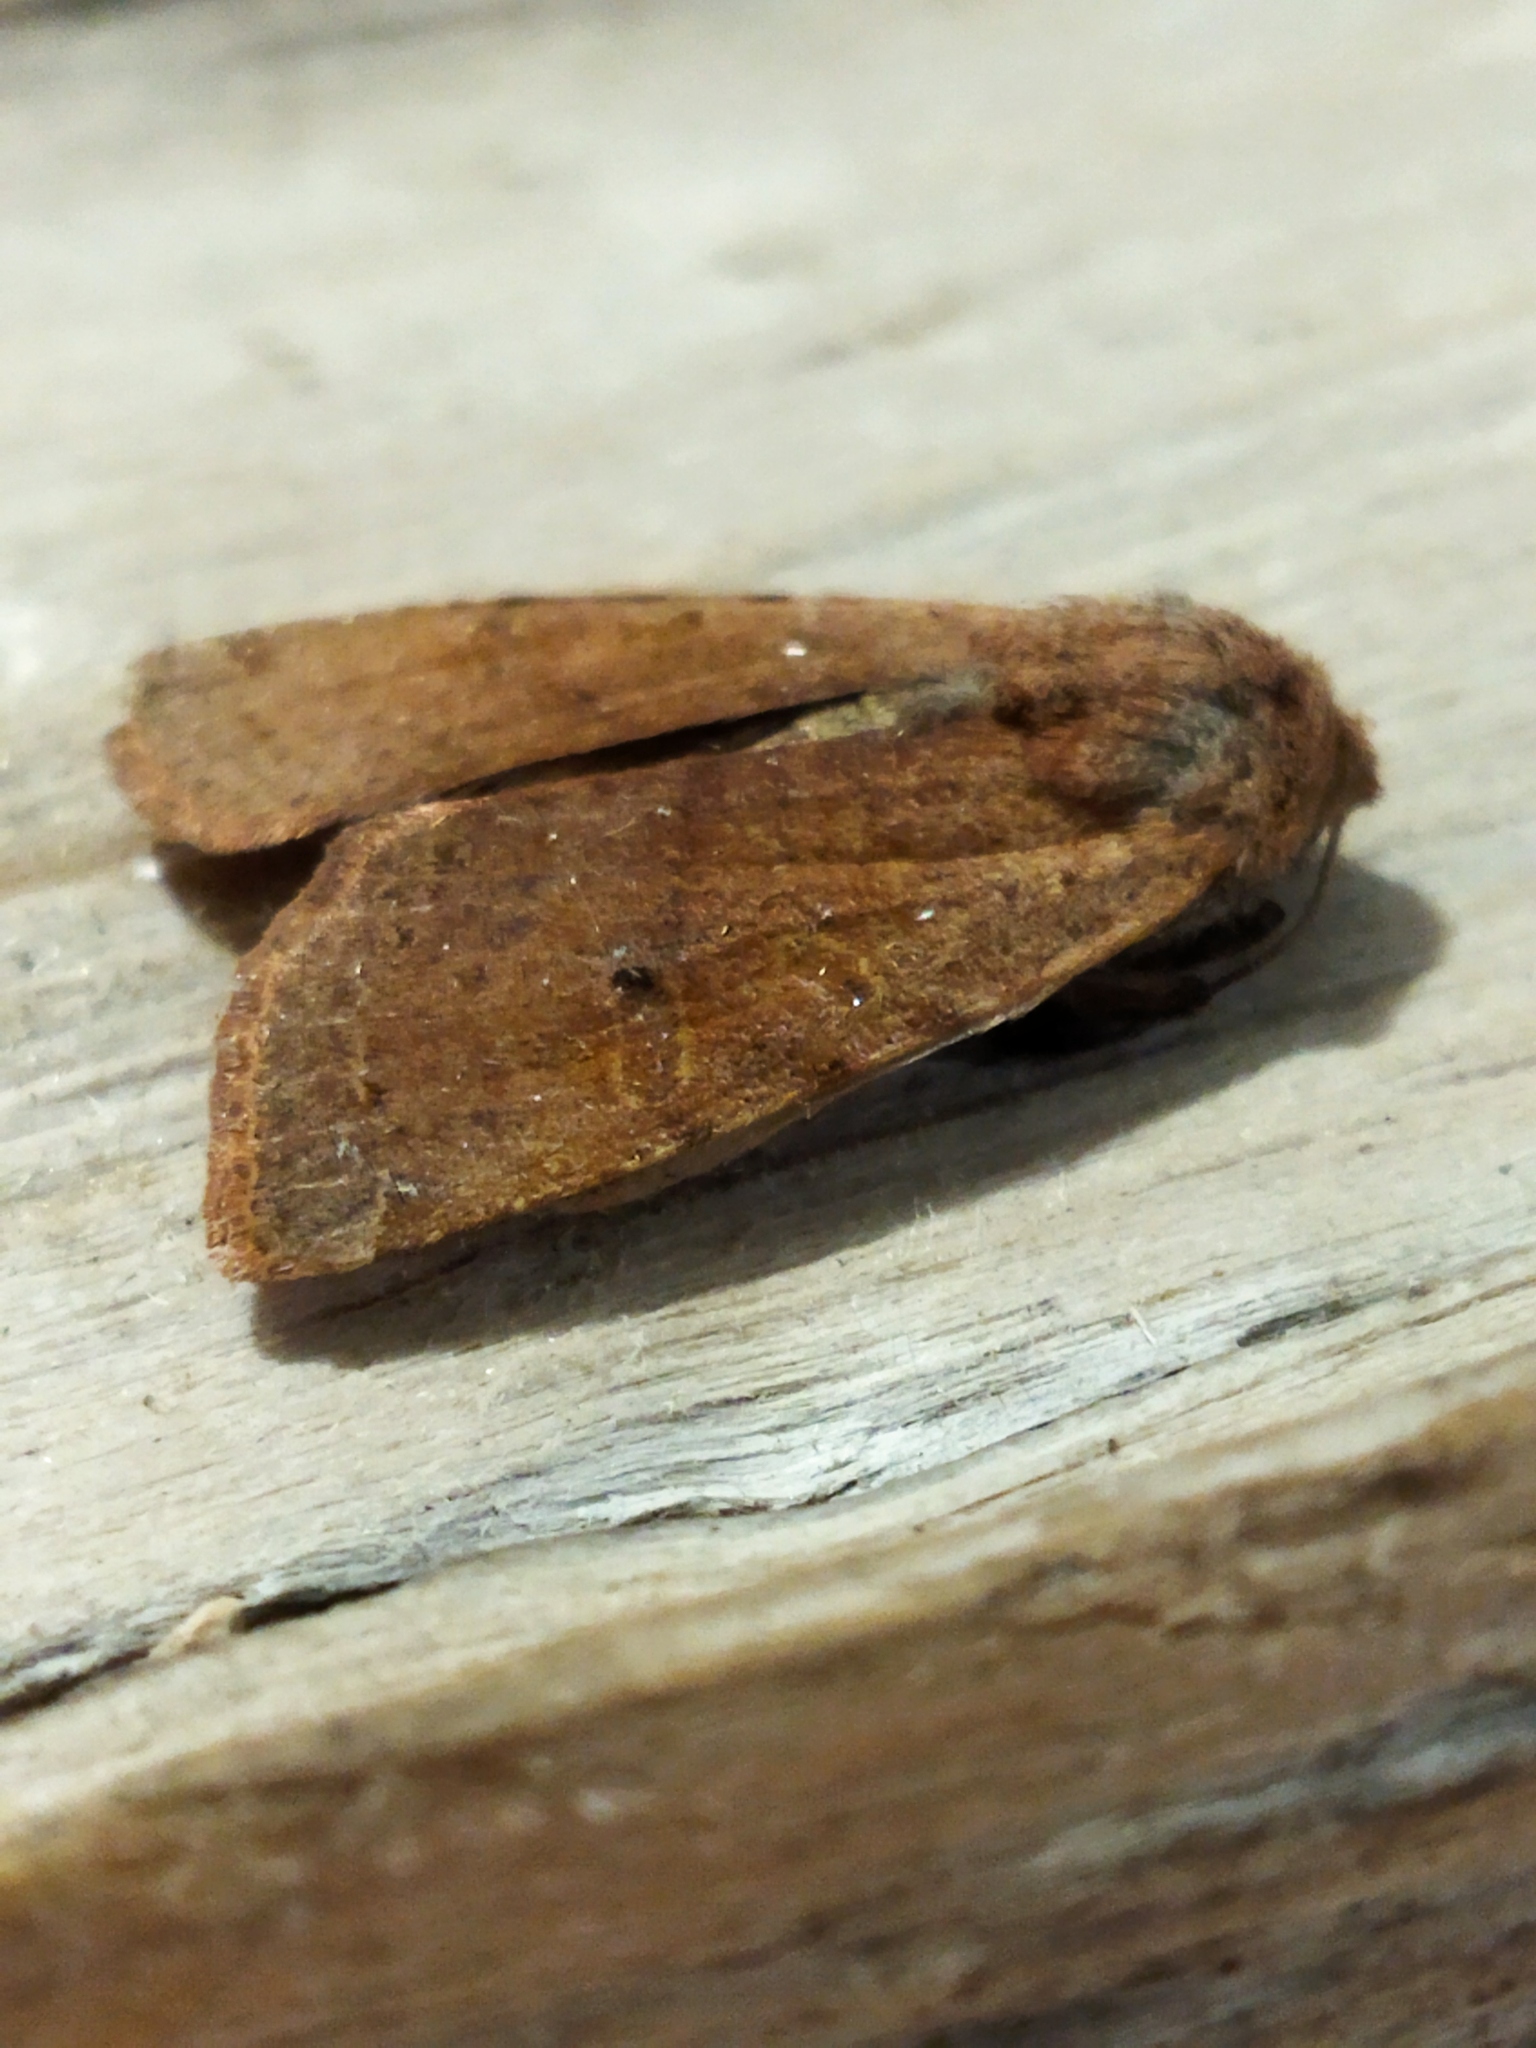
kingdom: Animalia
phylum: Arthropoda
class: Insecta
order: Lepidoptera
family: Noctuidae
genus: Agrochola
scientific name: Agrochola lychnidis
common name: Beaded chestnut
